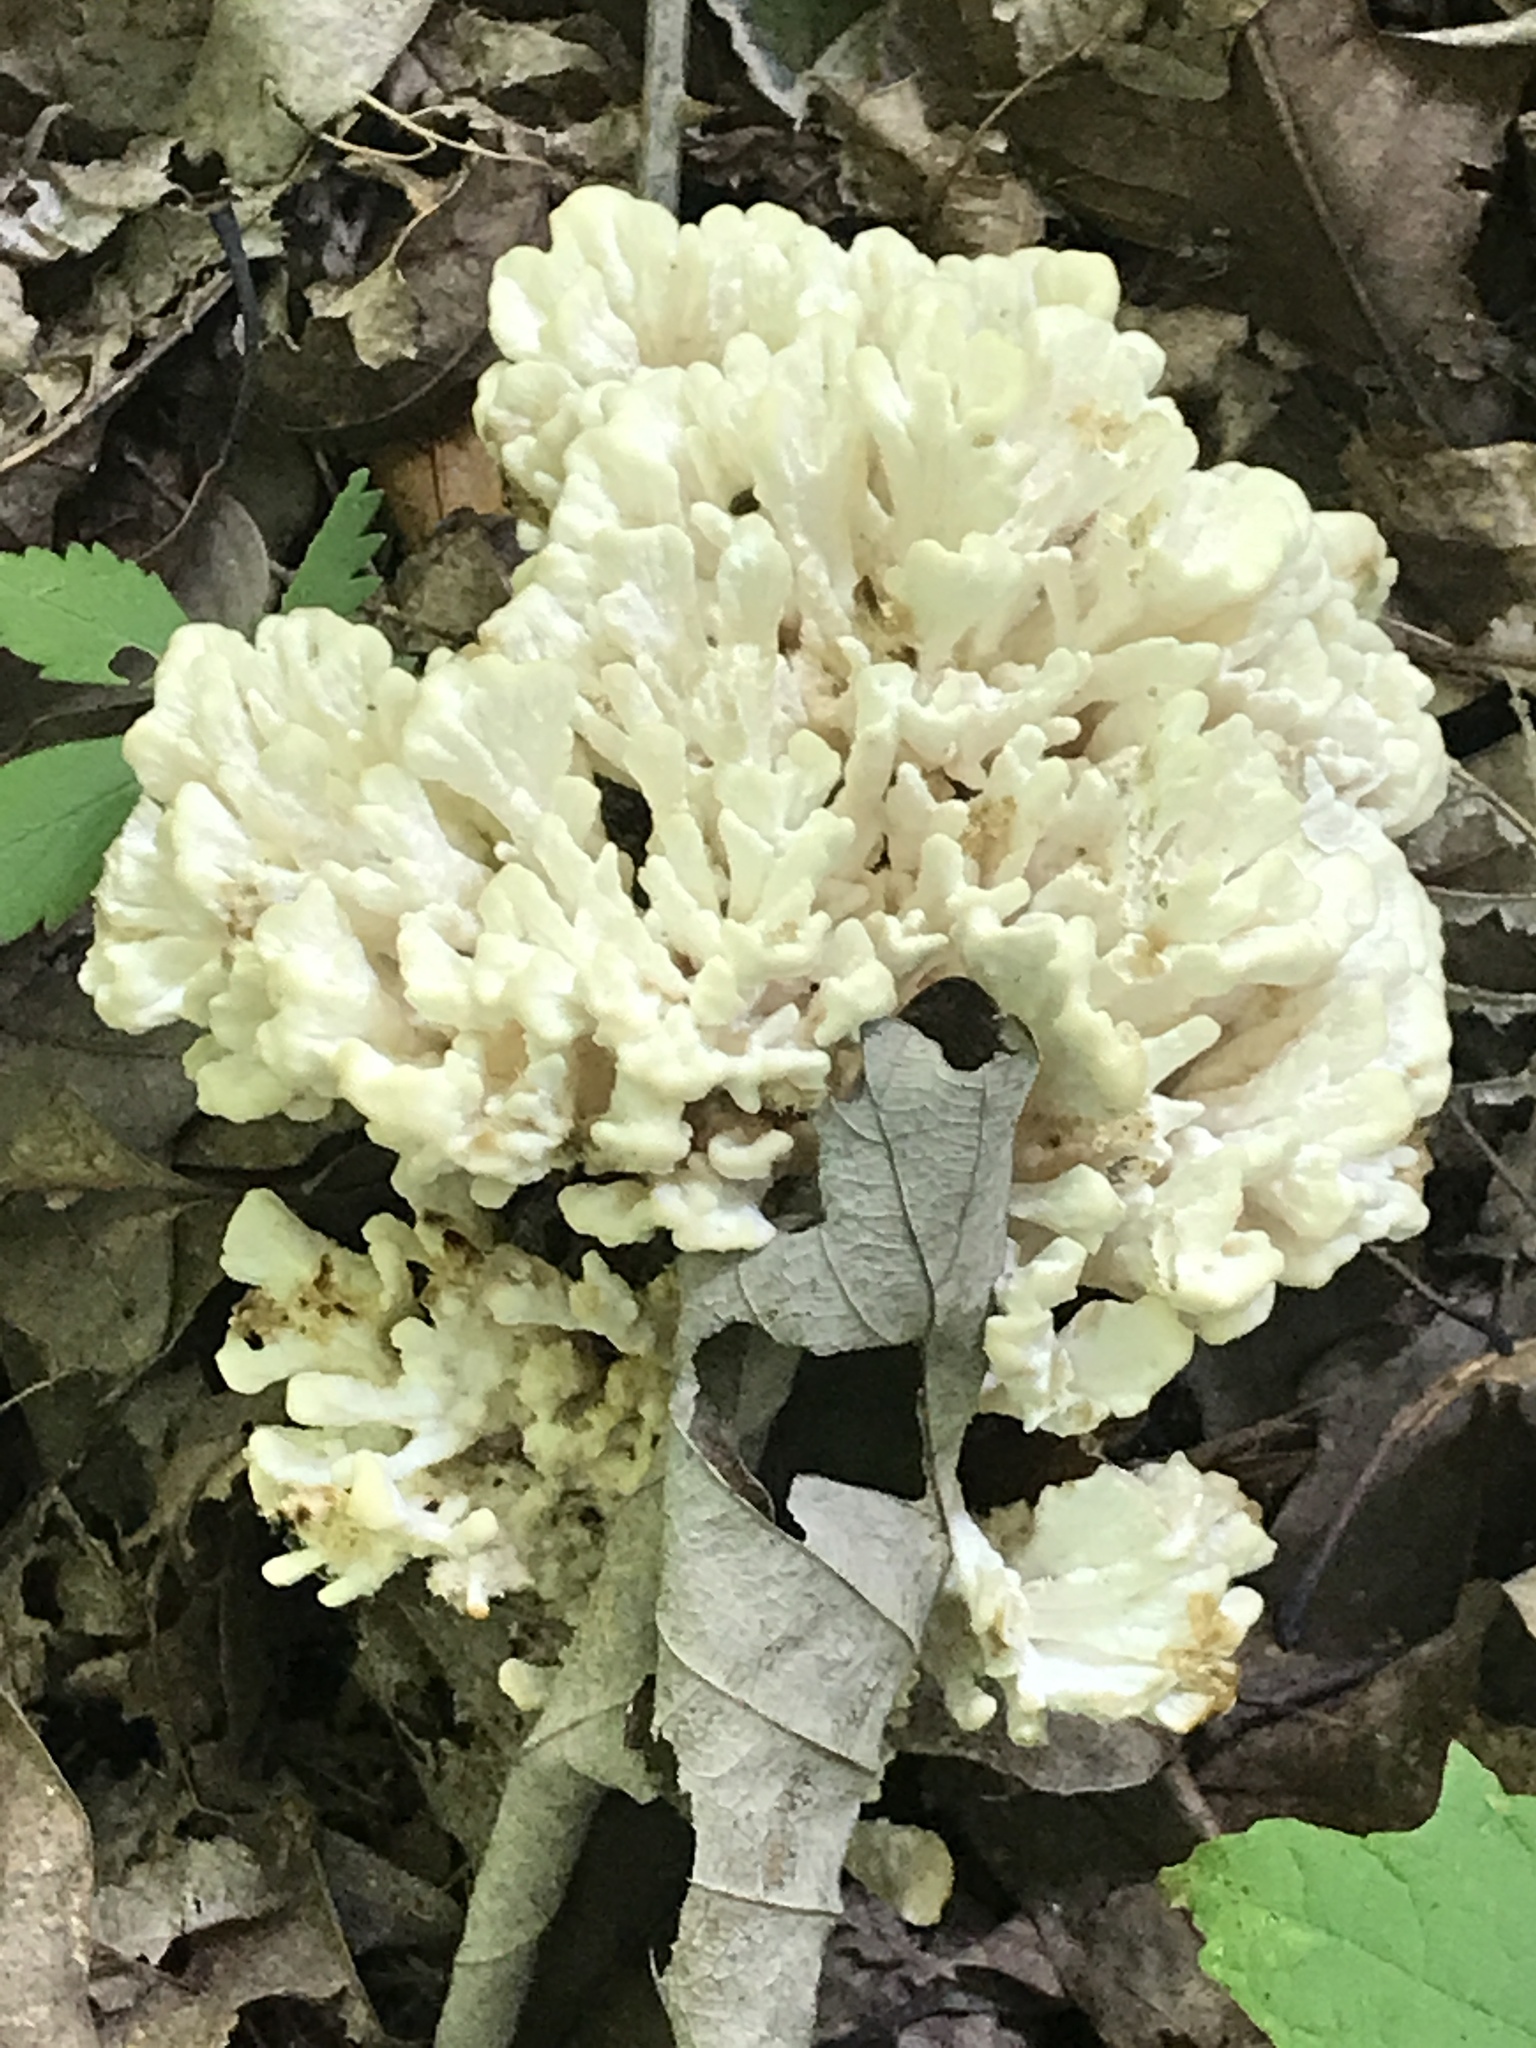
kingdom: Fungi
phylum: Basidiomycota
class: Agaricomycetes
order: Sebacinales
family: Sebacinaceae
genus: Sebacina
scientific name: Sebacina schweinitzii
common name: Jellied false coral fungus
